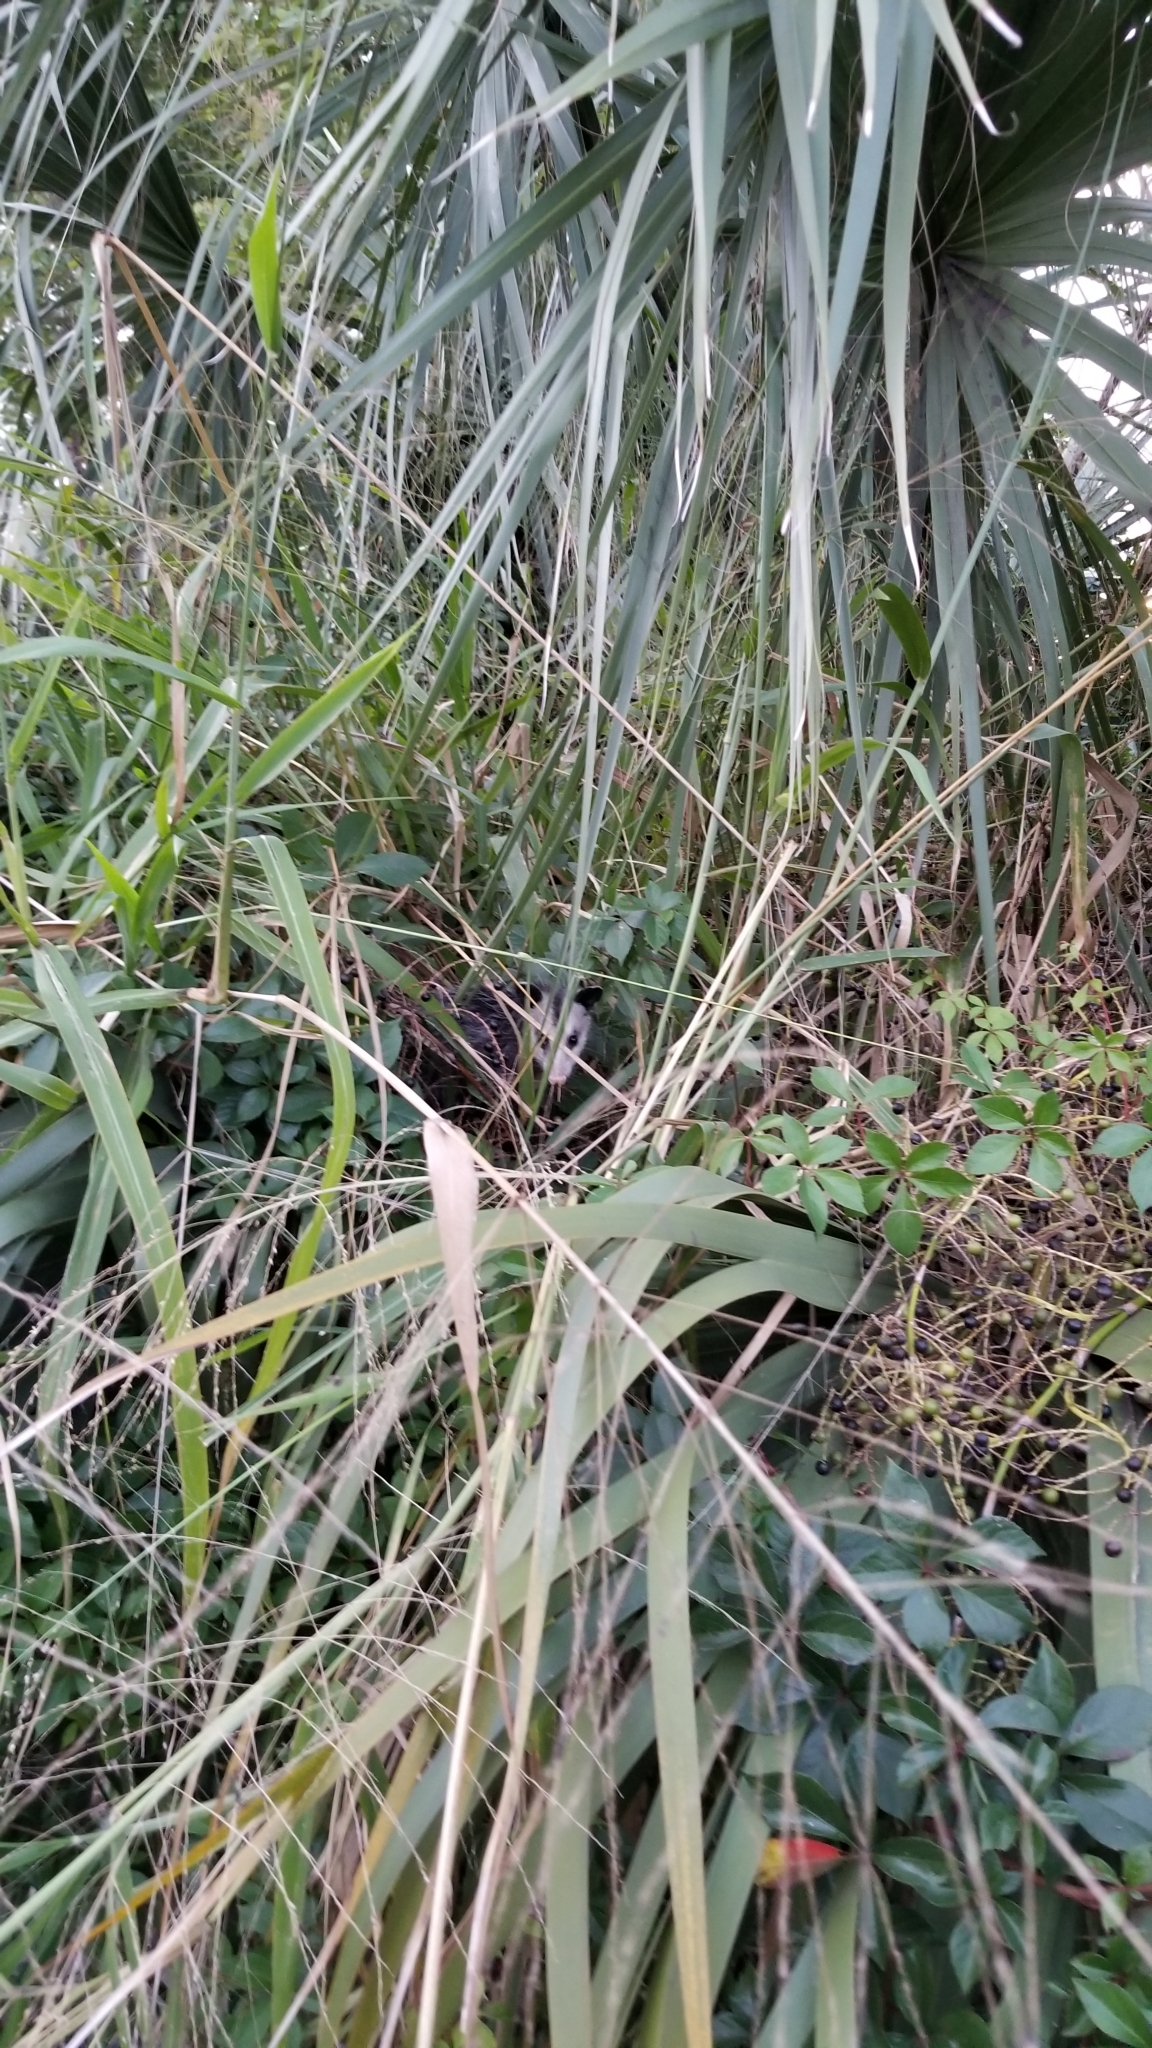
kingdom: Animalia
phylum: Chordata
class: Mammalia
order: Didelphimorphia
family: Didelphidae
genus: Didelphis
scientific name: Didelphis virginiana
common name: Virginia opossum
